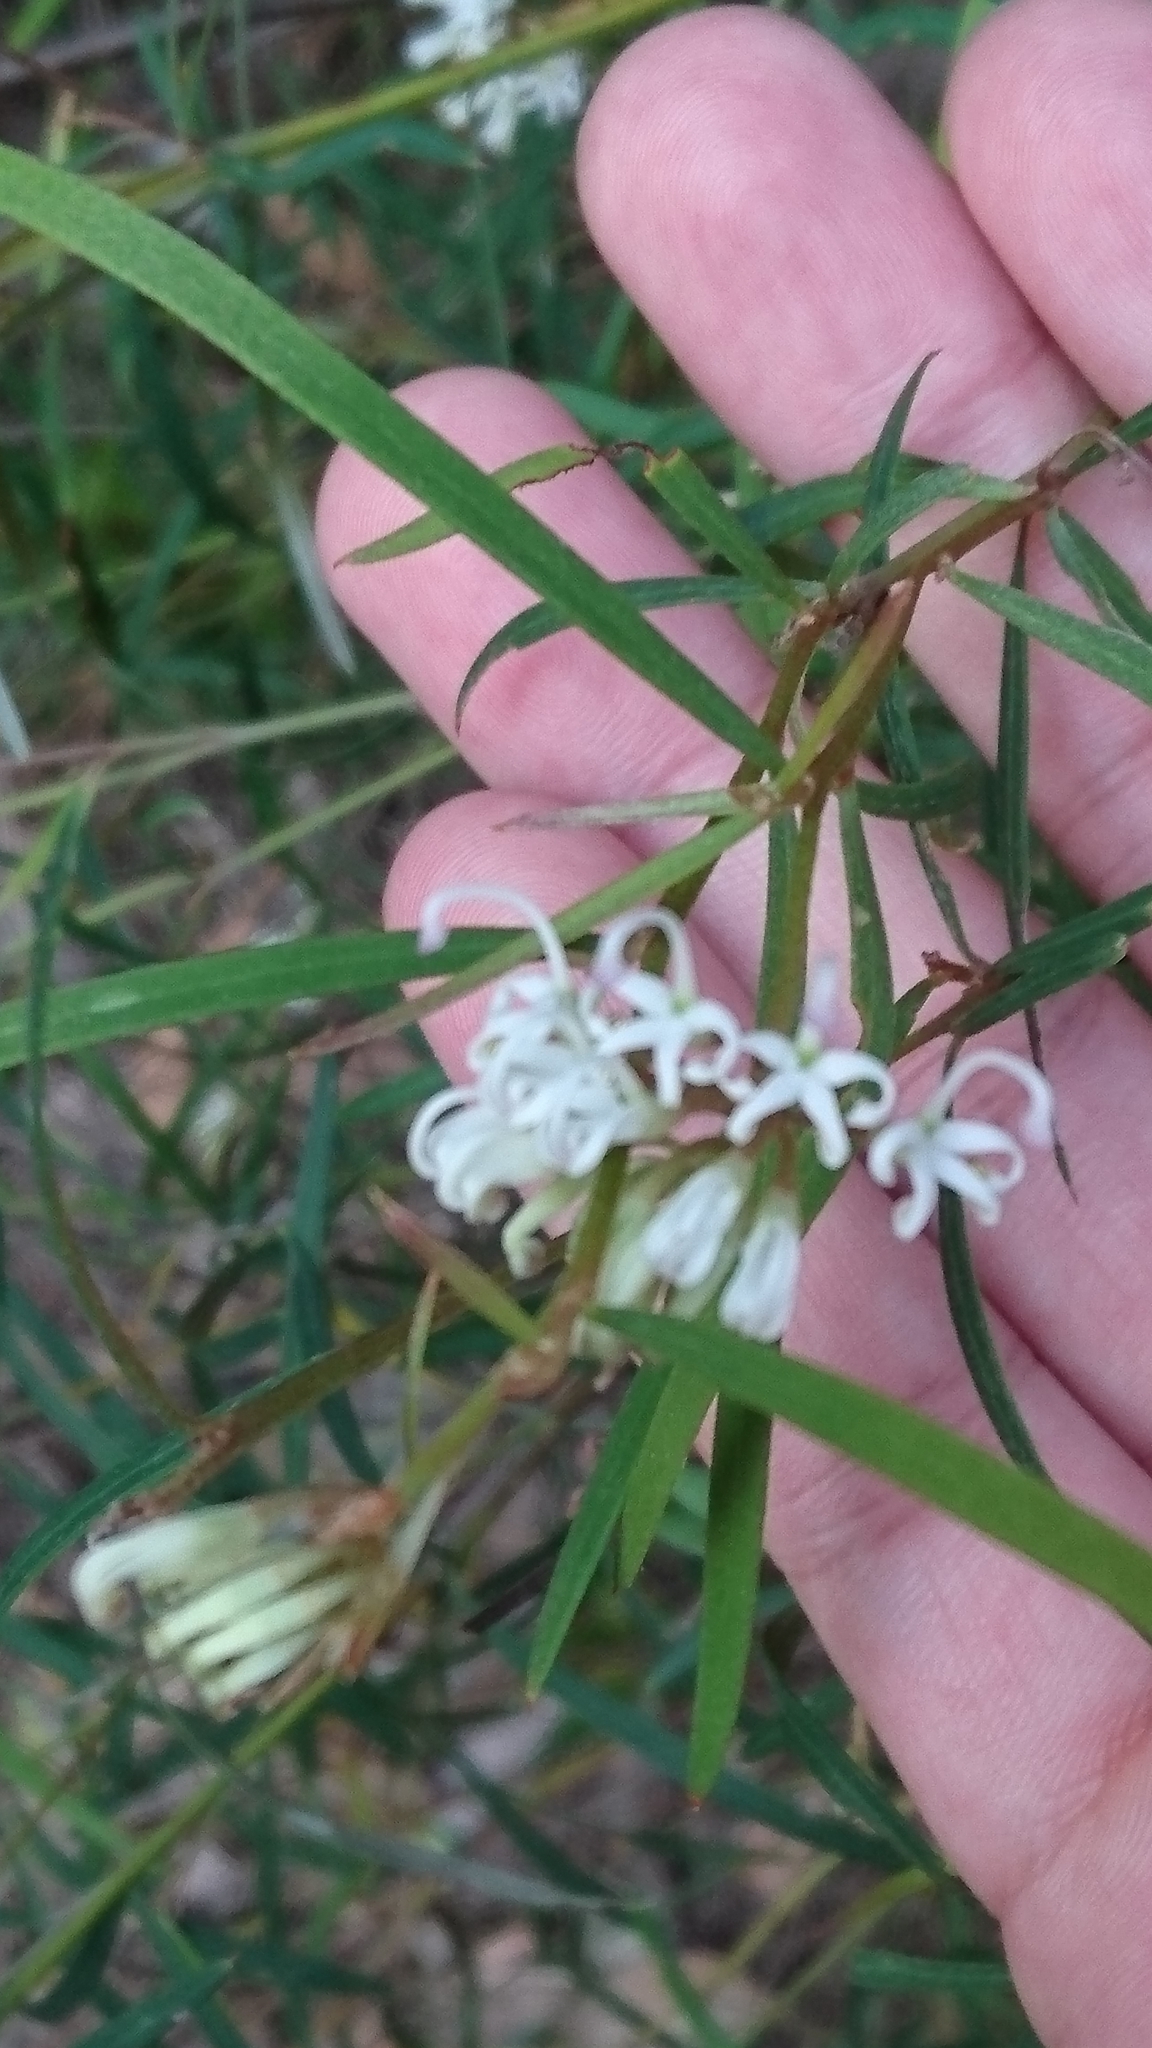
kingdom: Plantae
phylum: Tracheophyta
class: Magnoliopsida
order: Proteales
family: Proteaceae
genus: Grevillea
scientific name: Grevillea linearifolia
